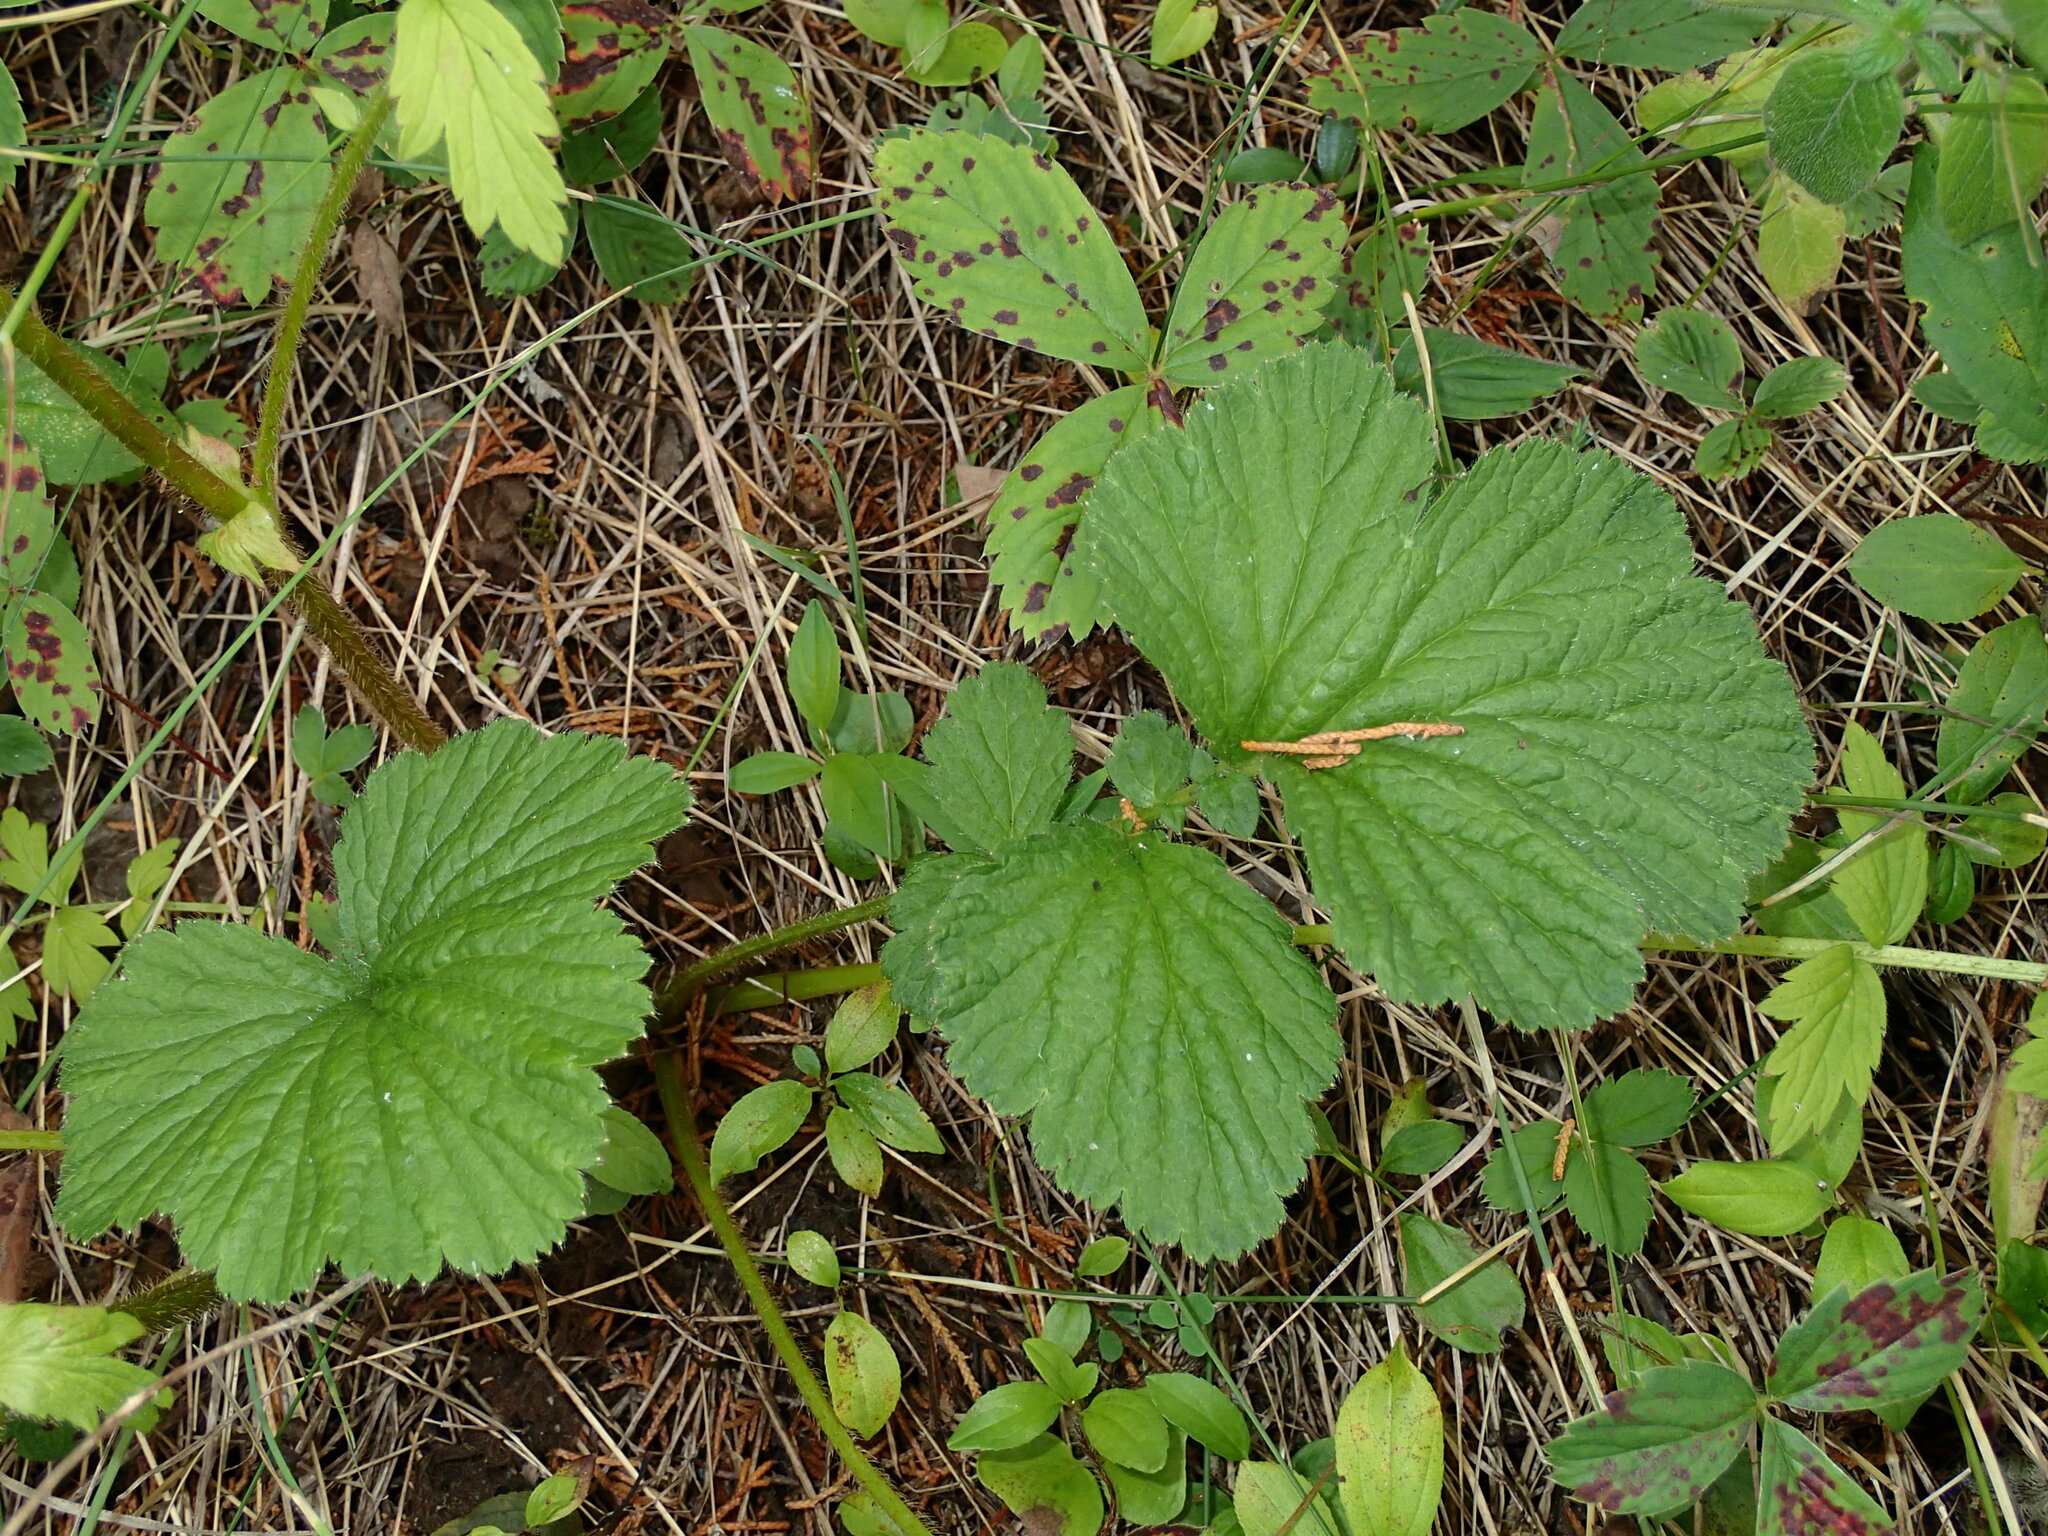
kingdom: Plantae
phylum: Tracheophyta
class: Magnoliopsida
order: Rosales
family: Rosaceae
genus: Geum
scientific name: Geum aleppicum
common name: Yellow avens
